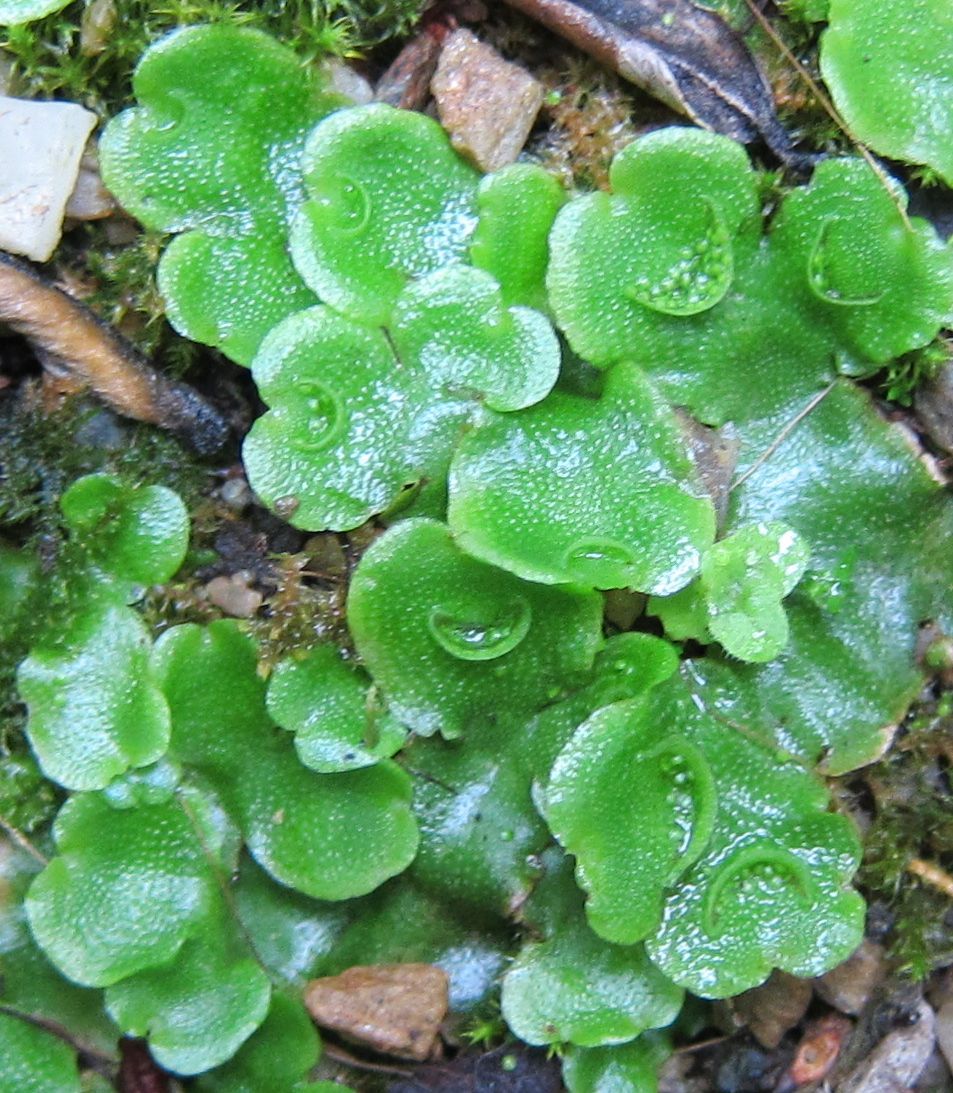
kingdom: Plantae
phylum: Marchantiophyta
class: Marchantiopsida
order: Lunulariales
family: Lunulariaceae
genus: Lunularia
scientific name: Lunularia cruciata
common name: Crescent-cup liverwort
